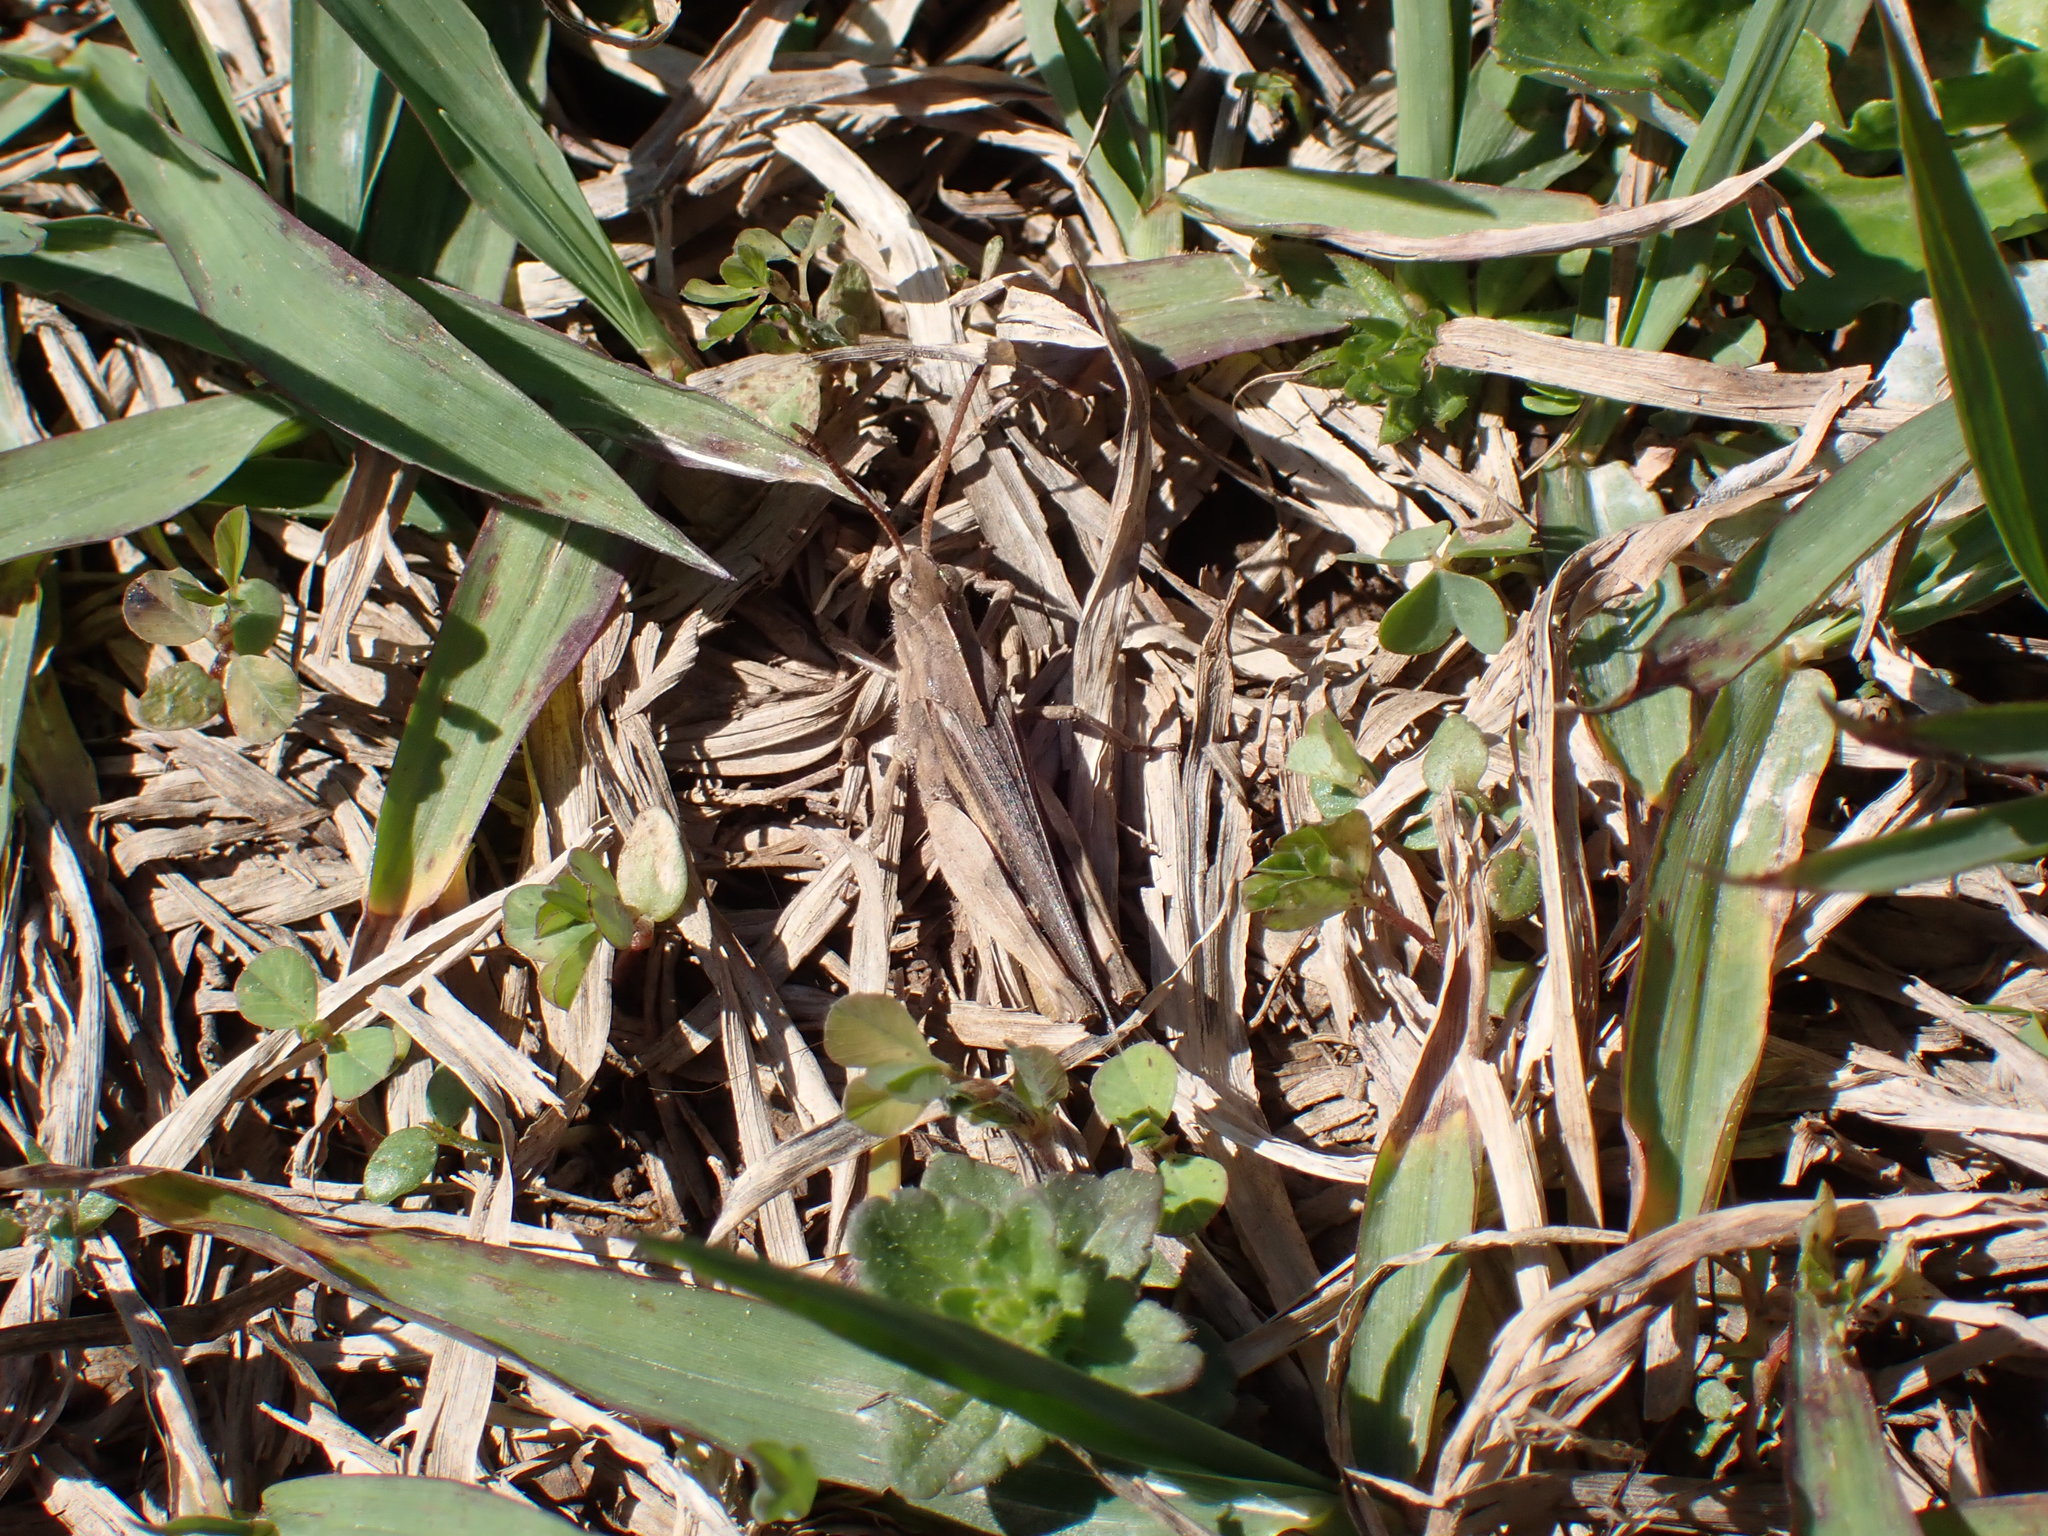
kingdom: Animalia
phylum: Arthropoda
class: Insecta
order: Orthoptera
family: Acrididae
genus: Chortophaga
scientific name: Chortophaga viridifasciata
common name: Green-striped grasshopper
